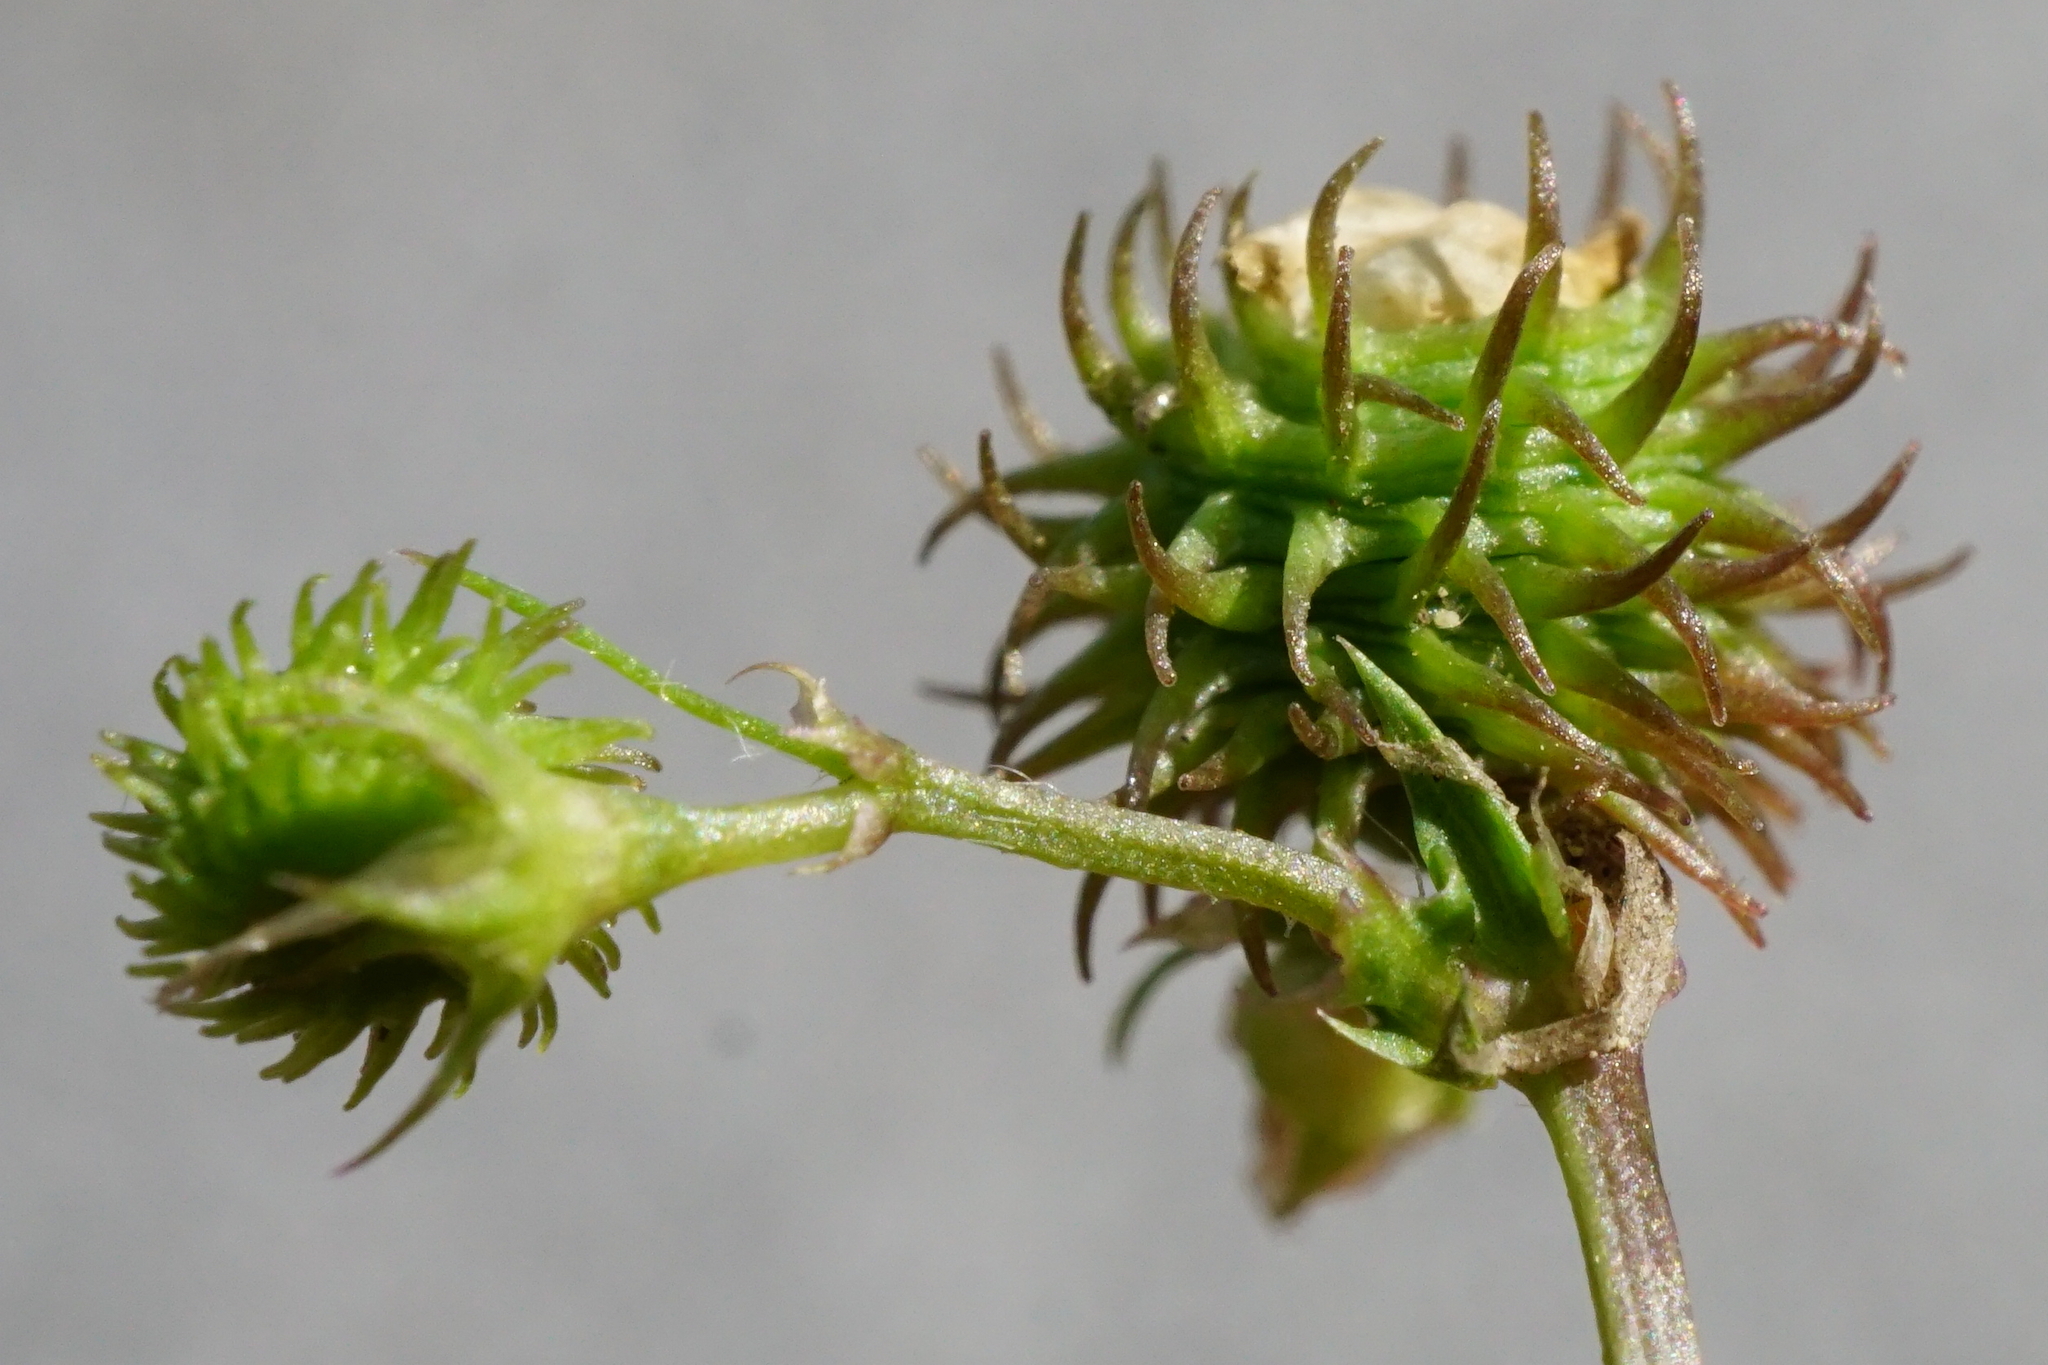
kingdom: Plantae
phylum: Tracheophyta
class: Magnoliopsida
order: Fabales
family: Fabaceae
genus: Medicago
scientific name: Medicago arabica
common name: Spotted medick
